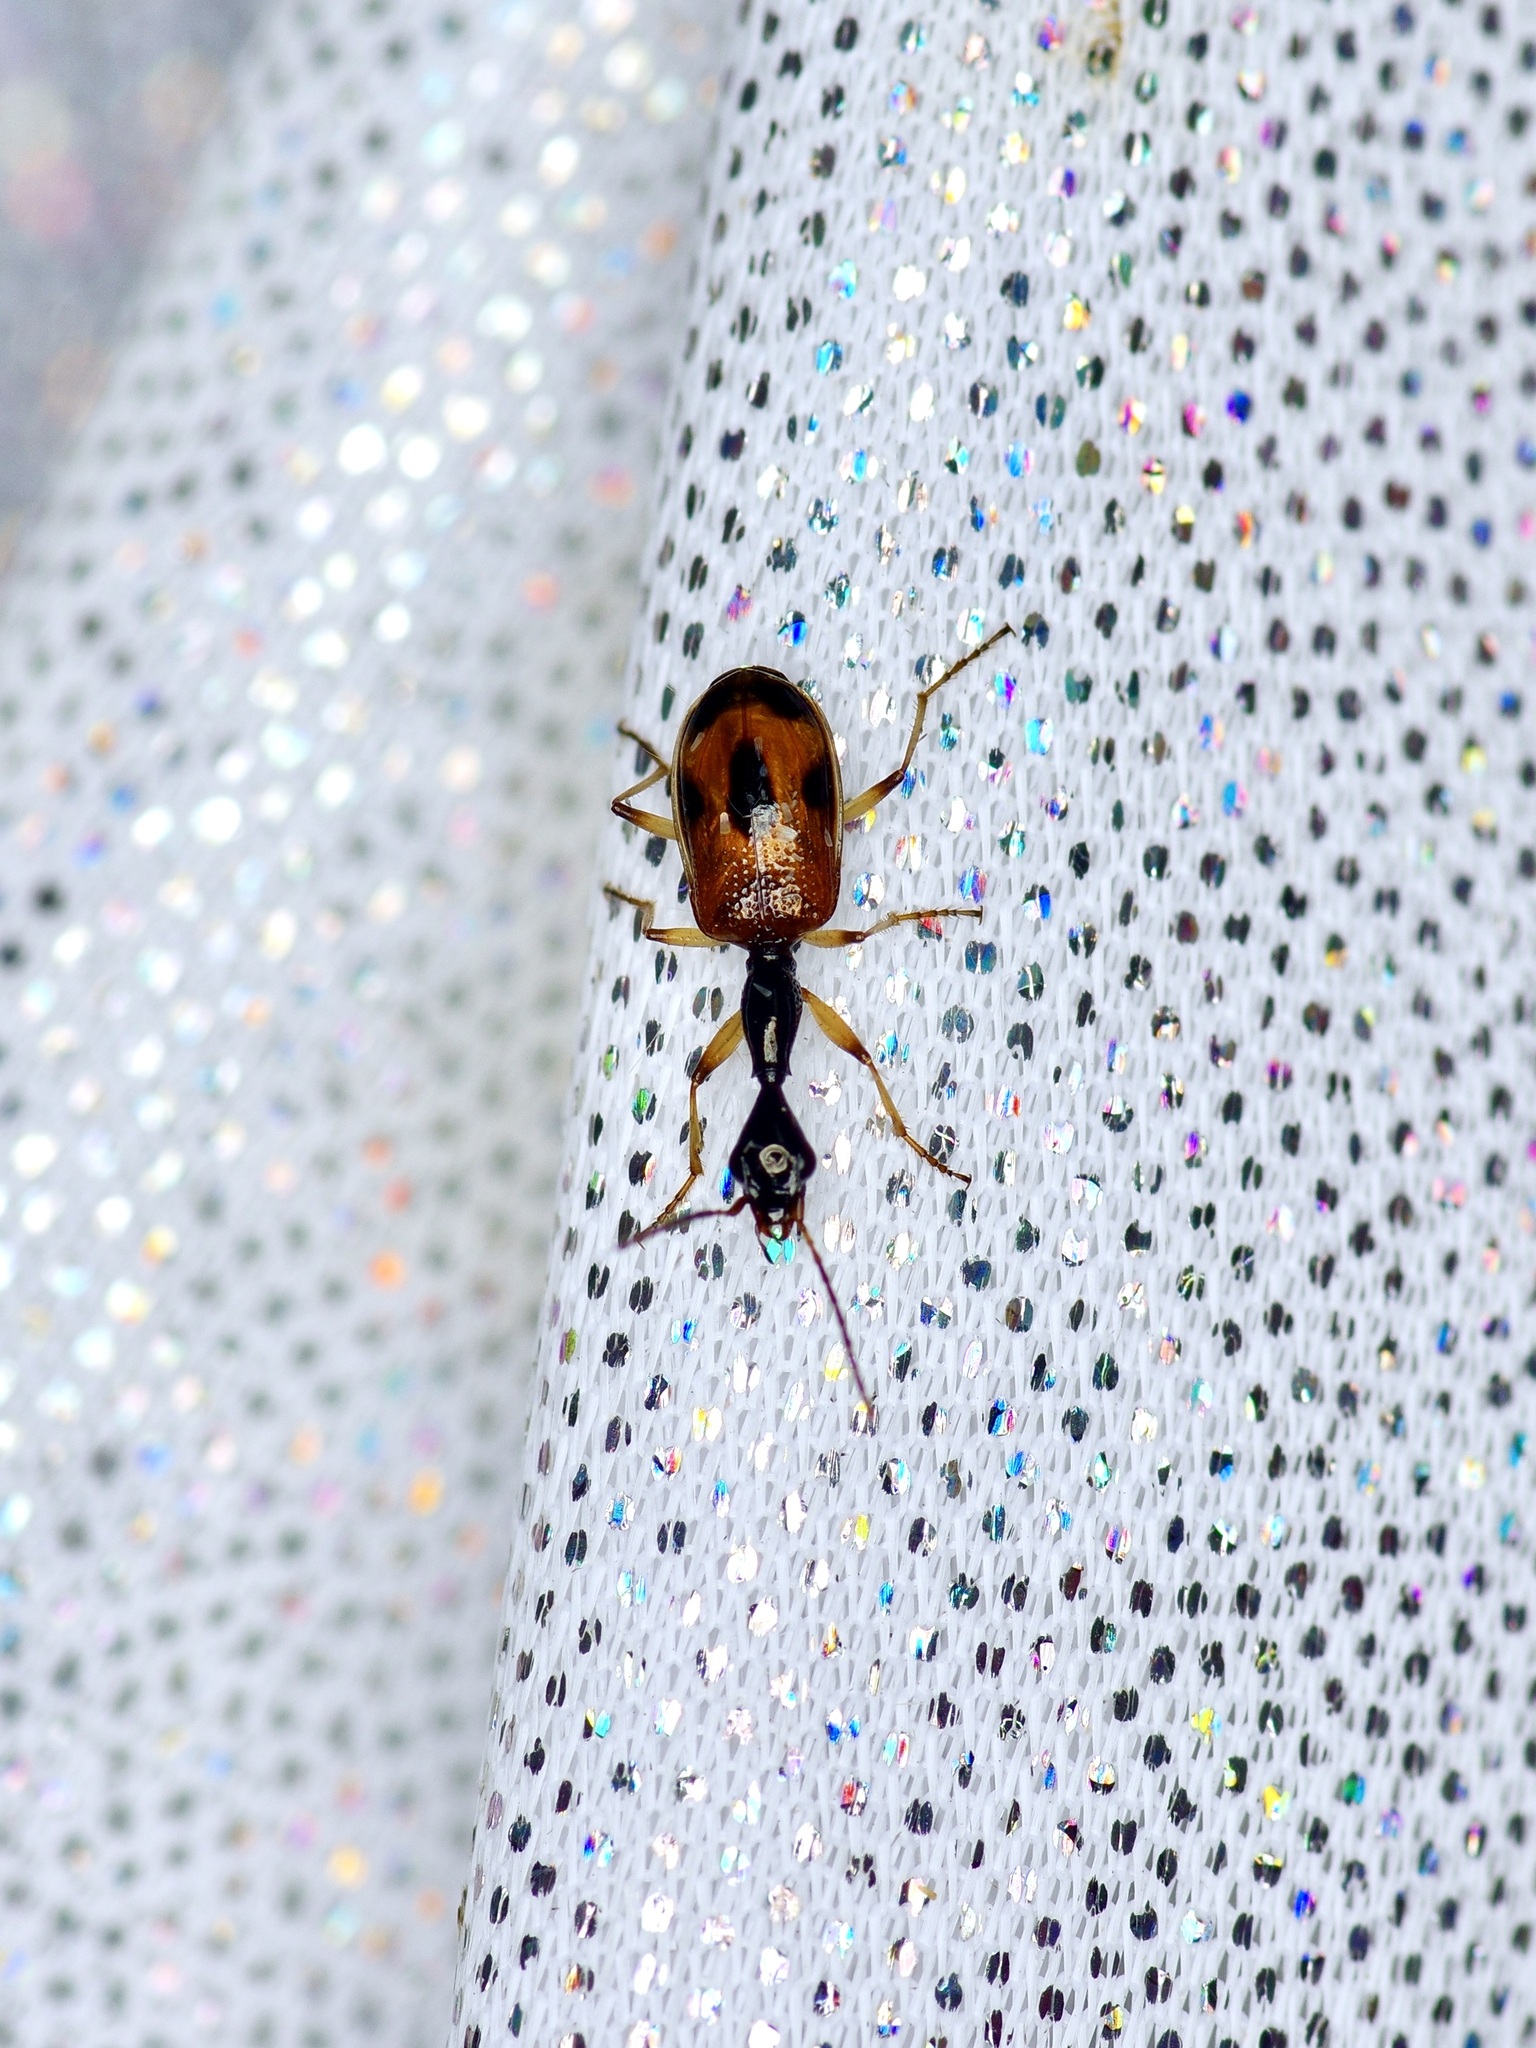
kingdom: Animalia
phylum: Arthropoda
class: Insecta
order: Coleoptera
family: Carabidae
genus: Colliuris
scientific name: Colliuris pensylvanica
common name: Long-necked ground beetle
